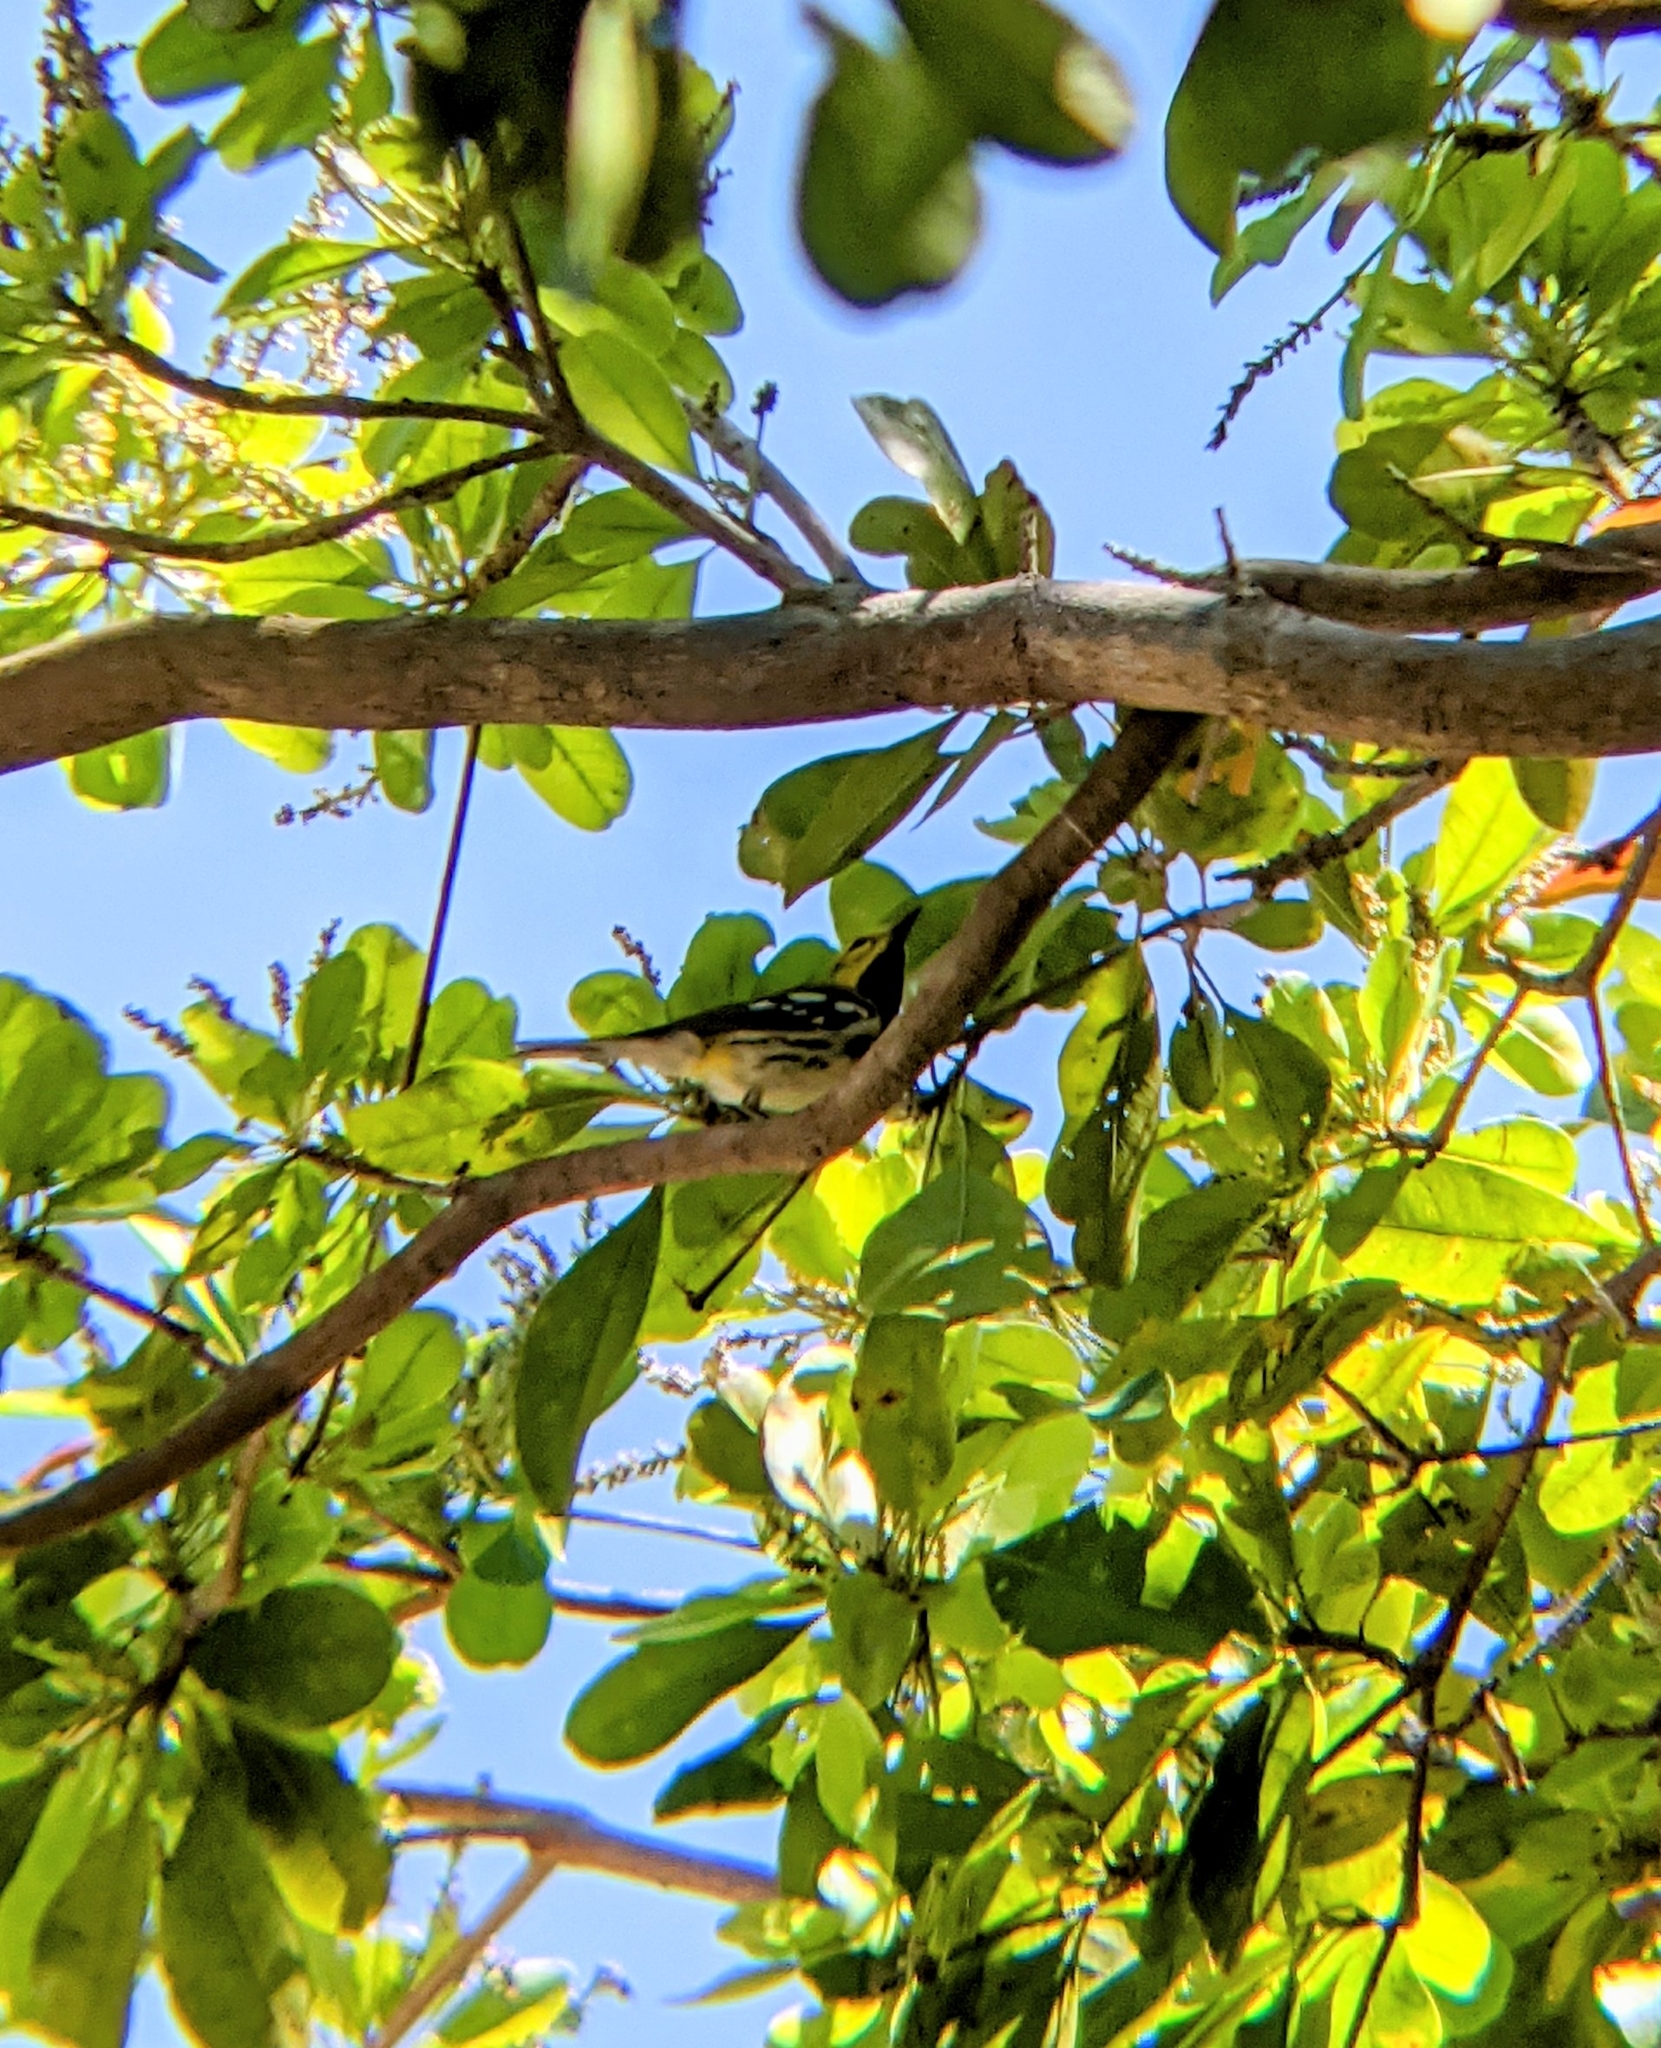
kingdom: Animalia
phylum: Chordata
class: Aves
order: Passeriformes
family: Parulidae
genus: Setophaga
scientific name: Setophaga virens
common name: Black-throated green warbler
